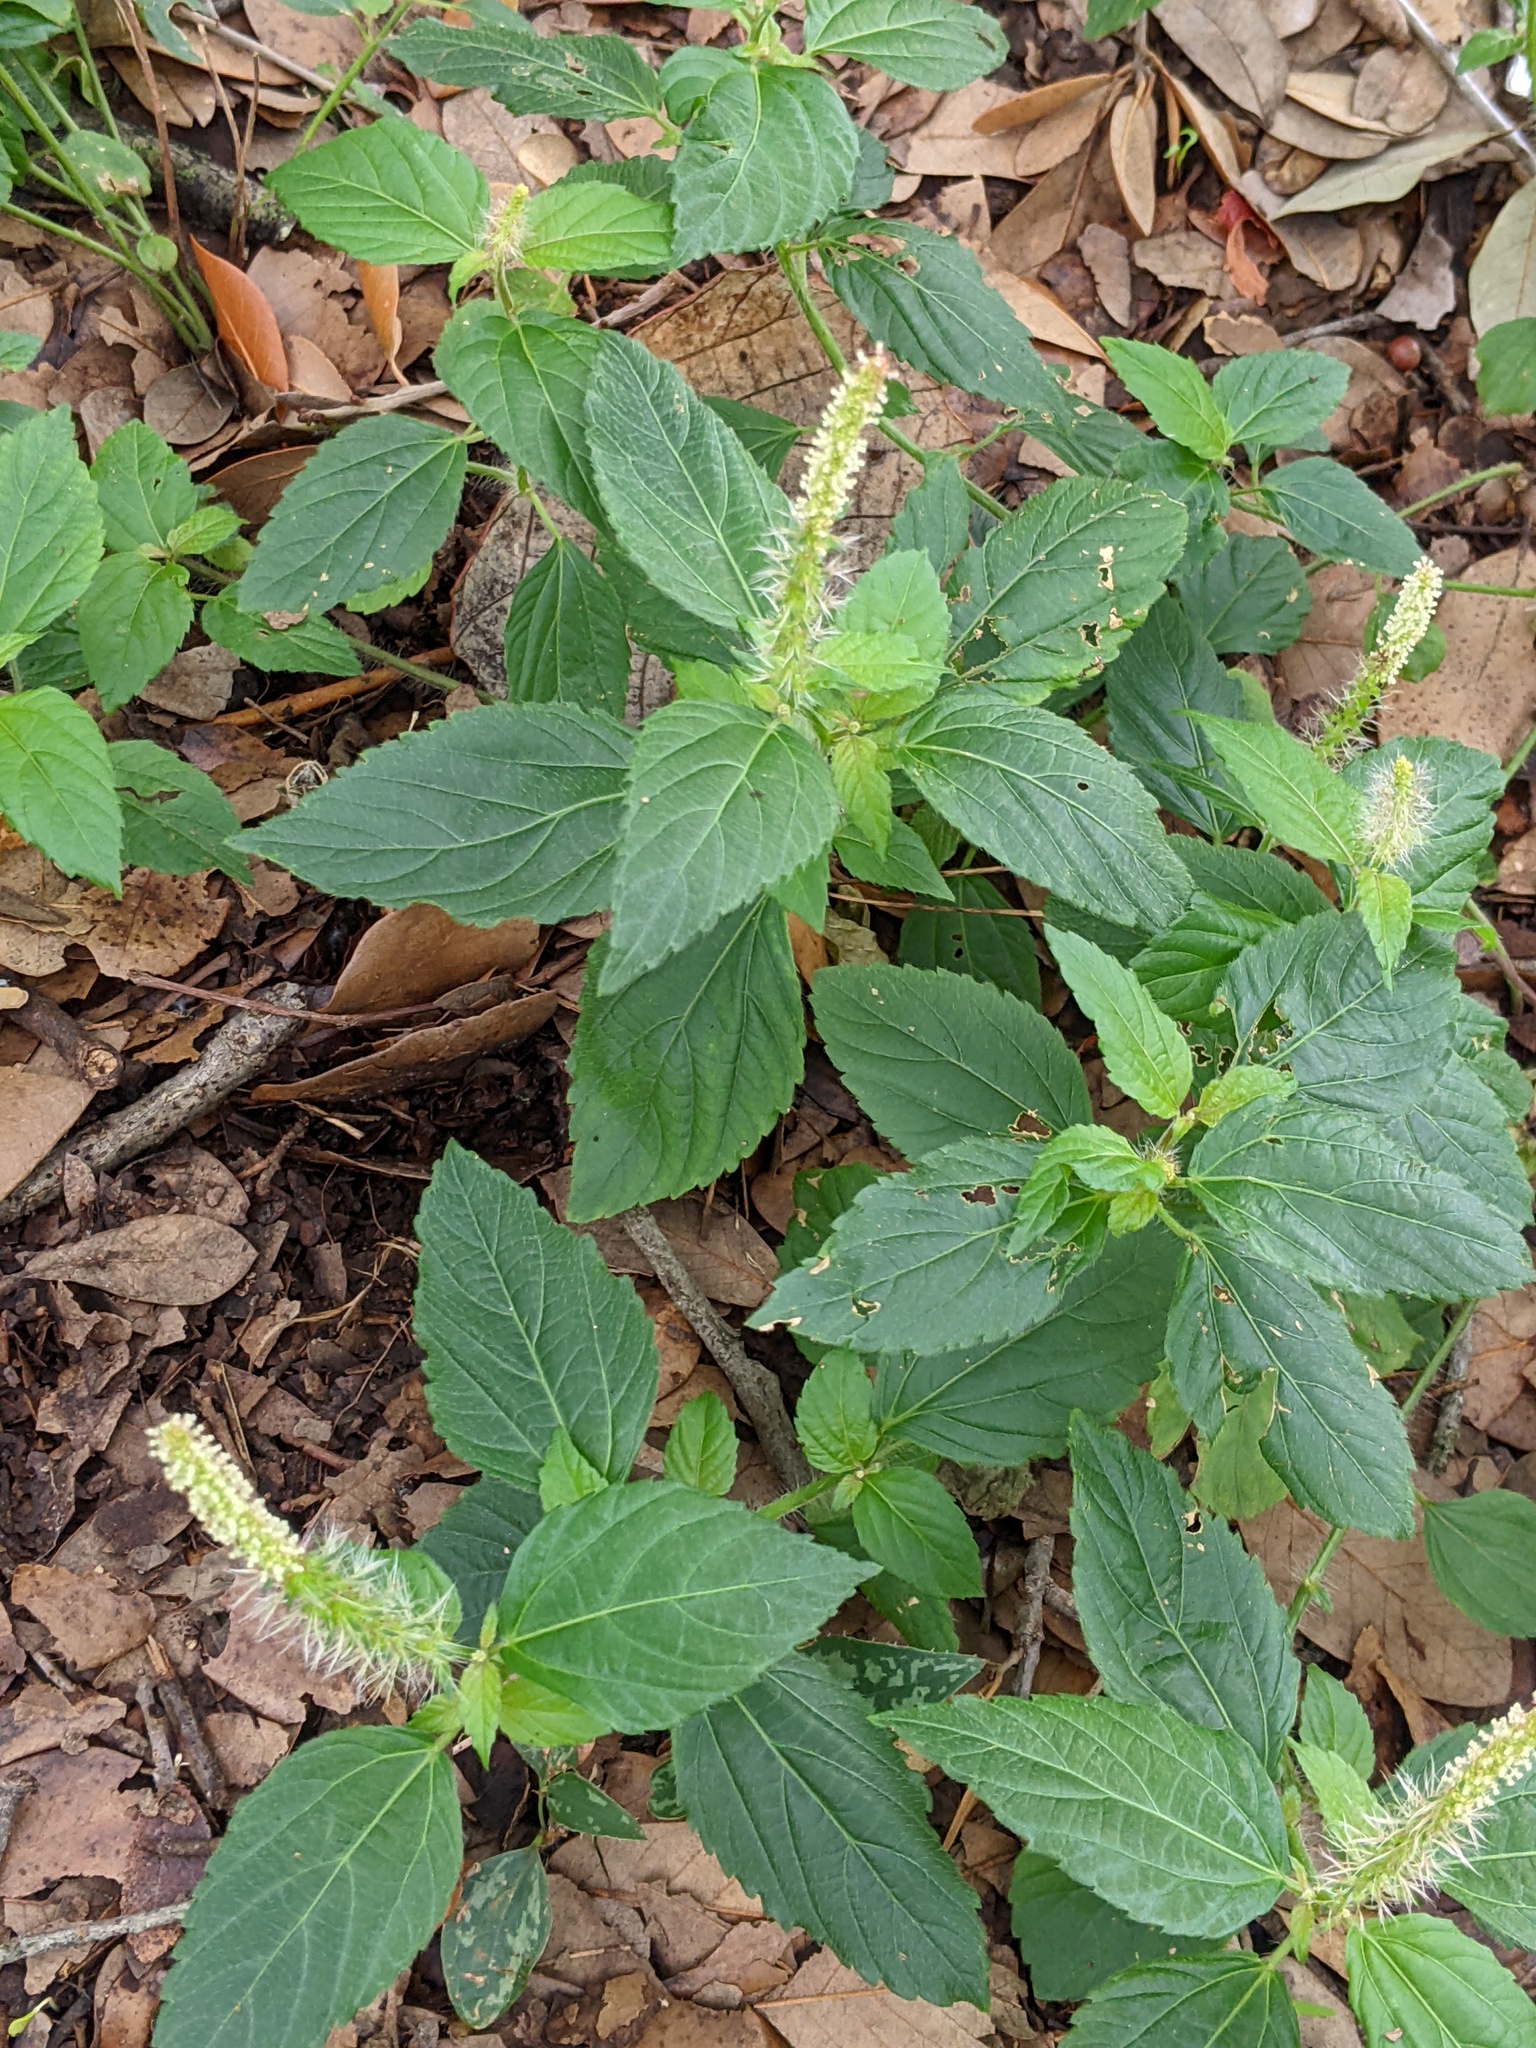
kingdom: Plantae
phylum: Tracheophyta
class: Magnoliopsida
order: Malpighiales
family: Euphorbiaceae
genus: Acalypha
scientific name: Acalypha phleoides
